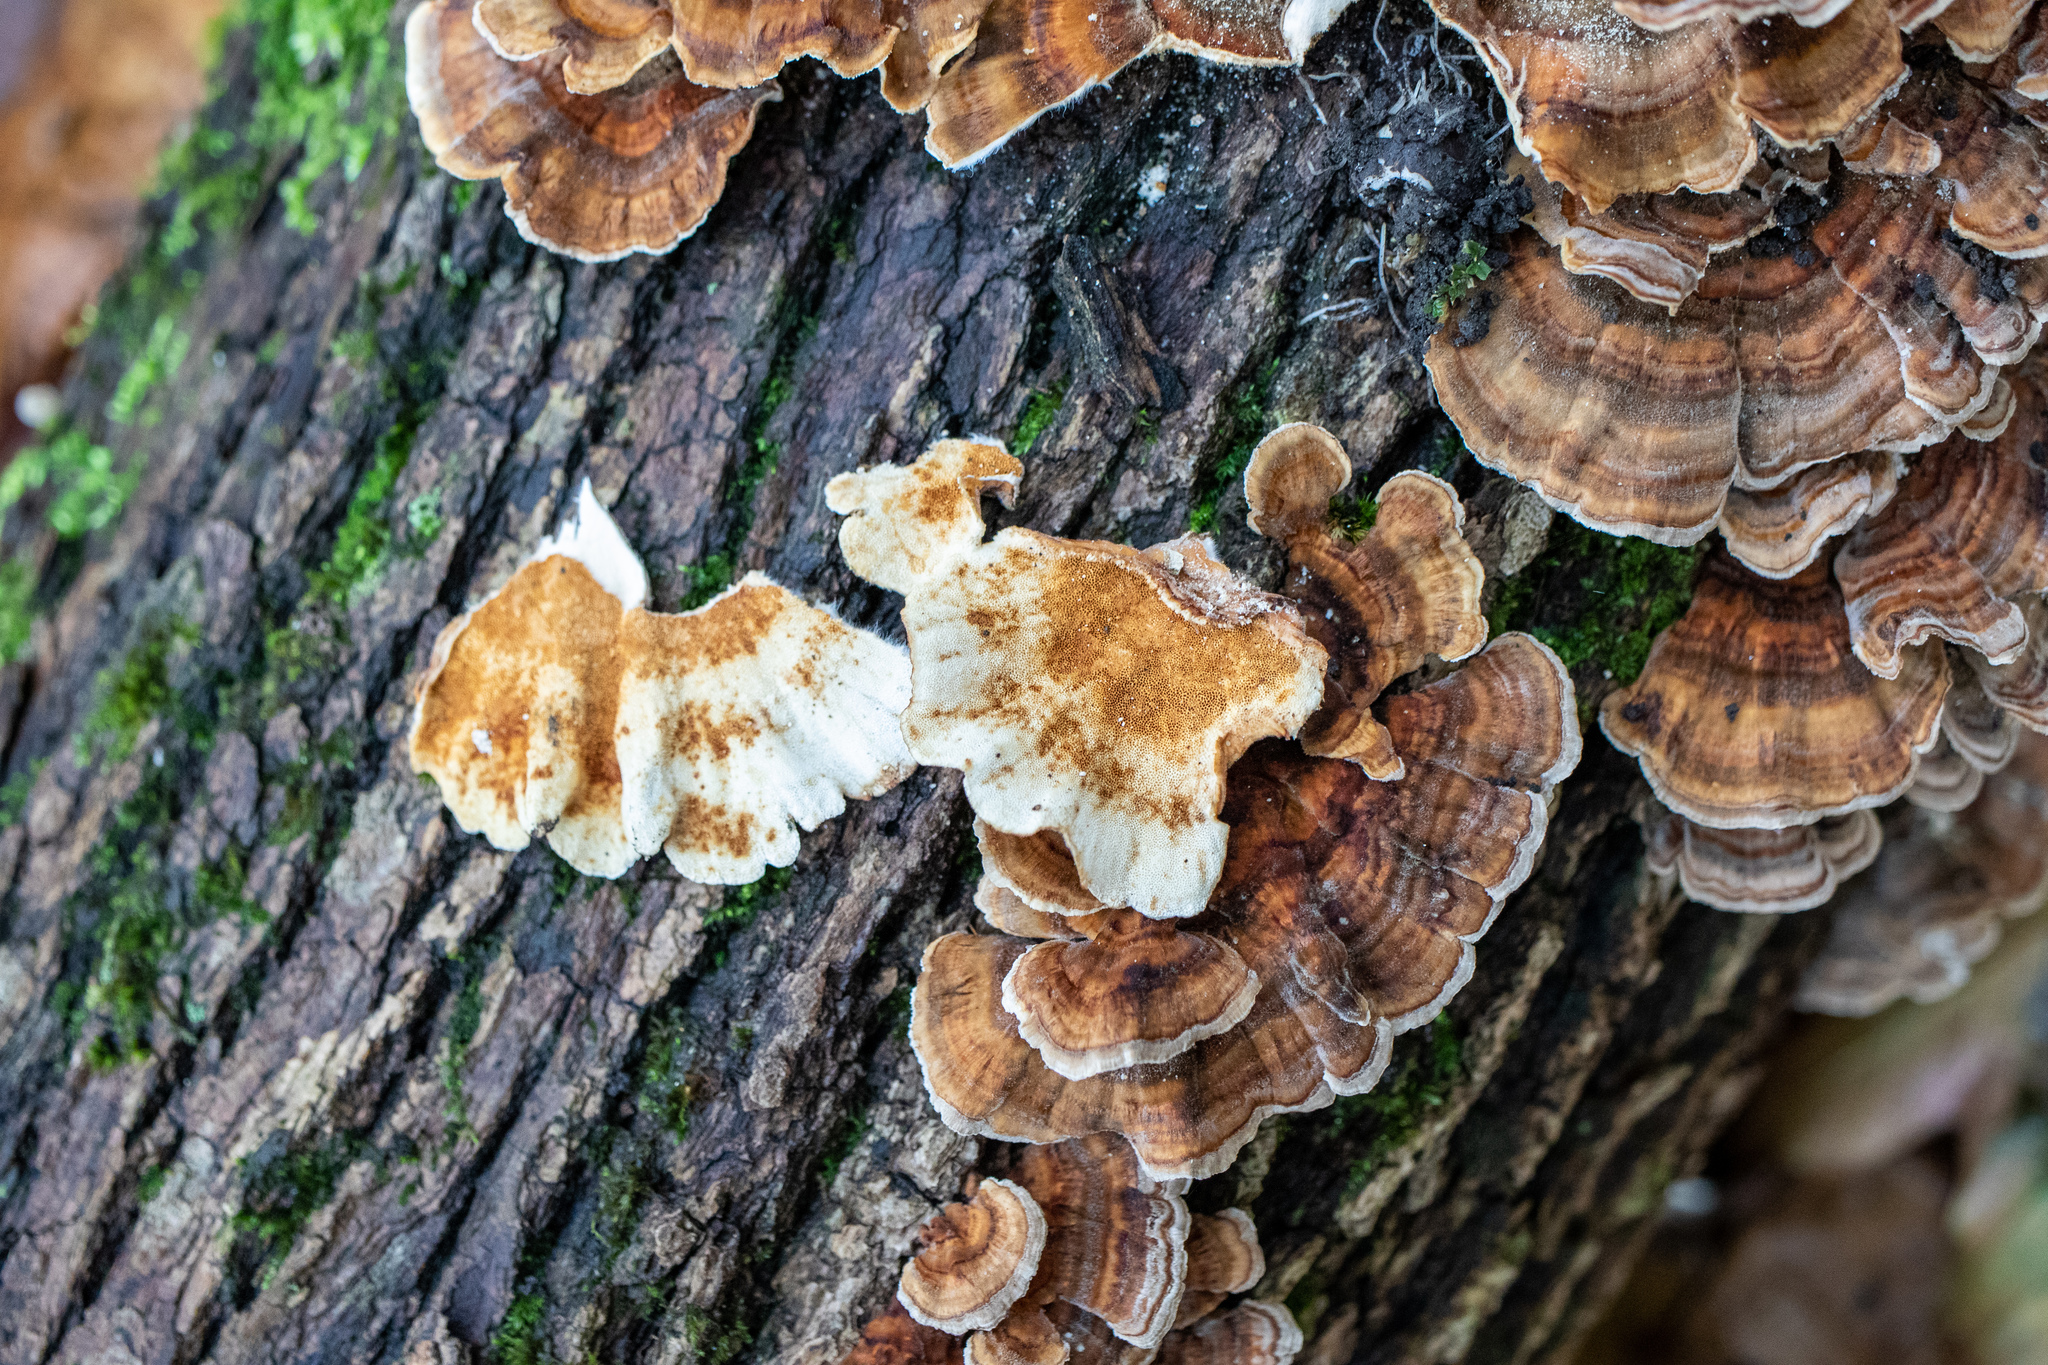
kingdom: Fungi
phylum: Basidiomycota
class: Agaricomycetes
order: Polyporales
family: Polyporaceae
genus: Trametes
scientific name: Trametes versicolor
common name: Turkeytail
